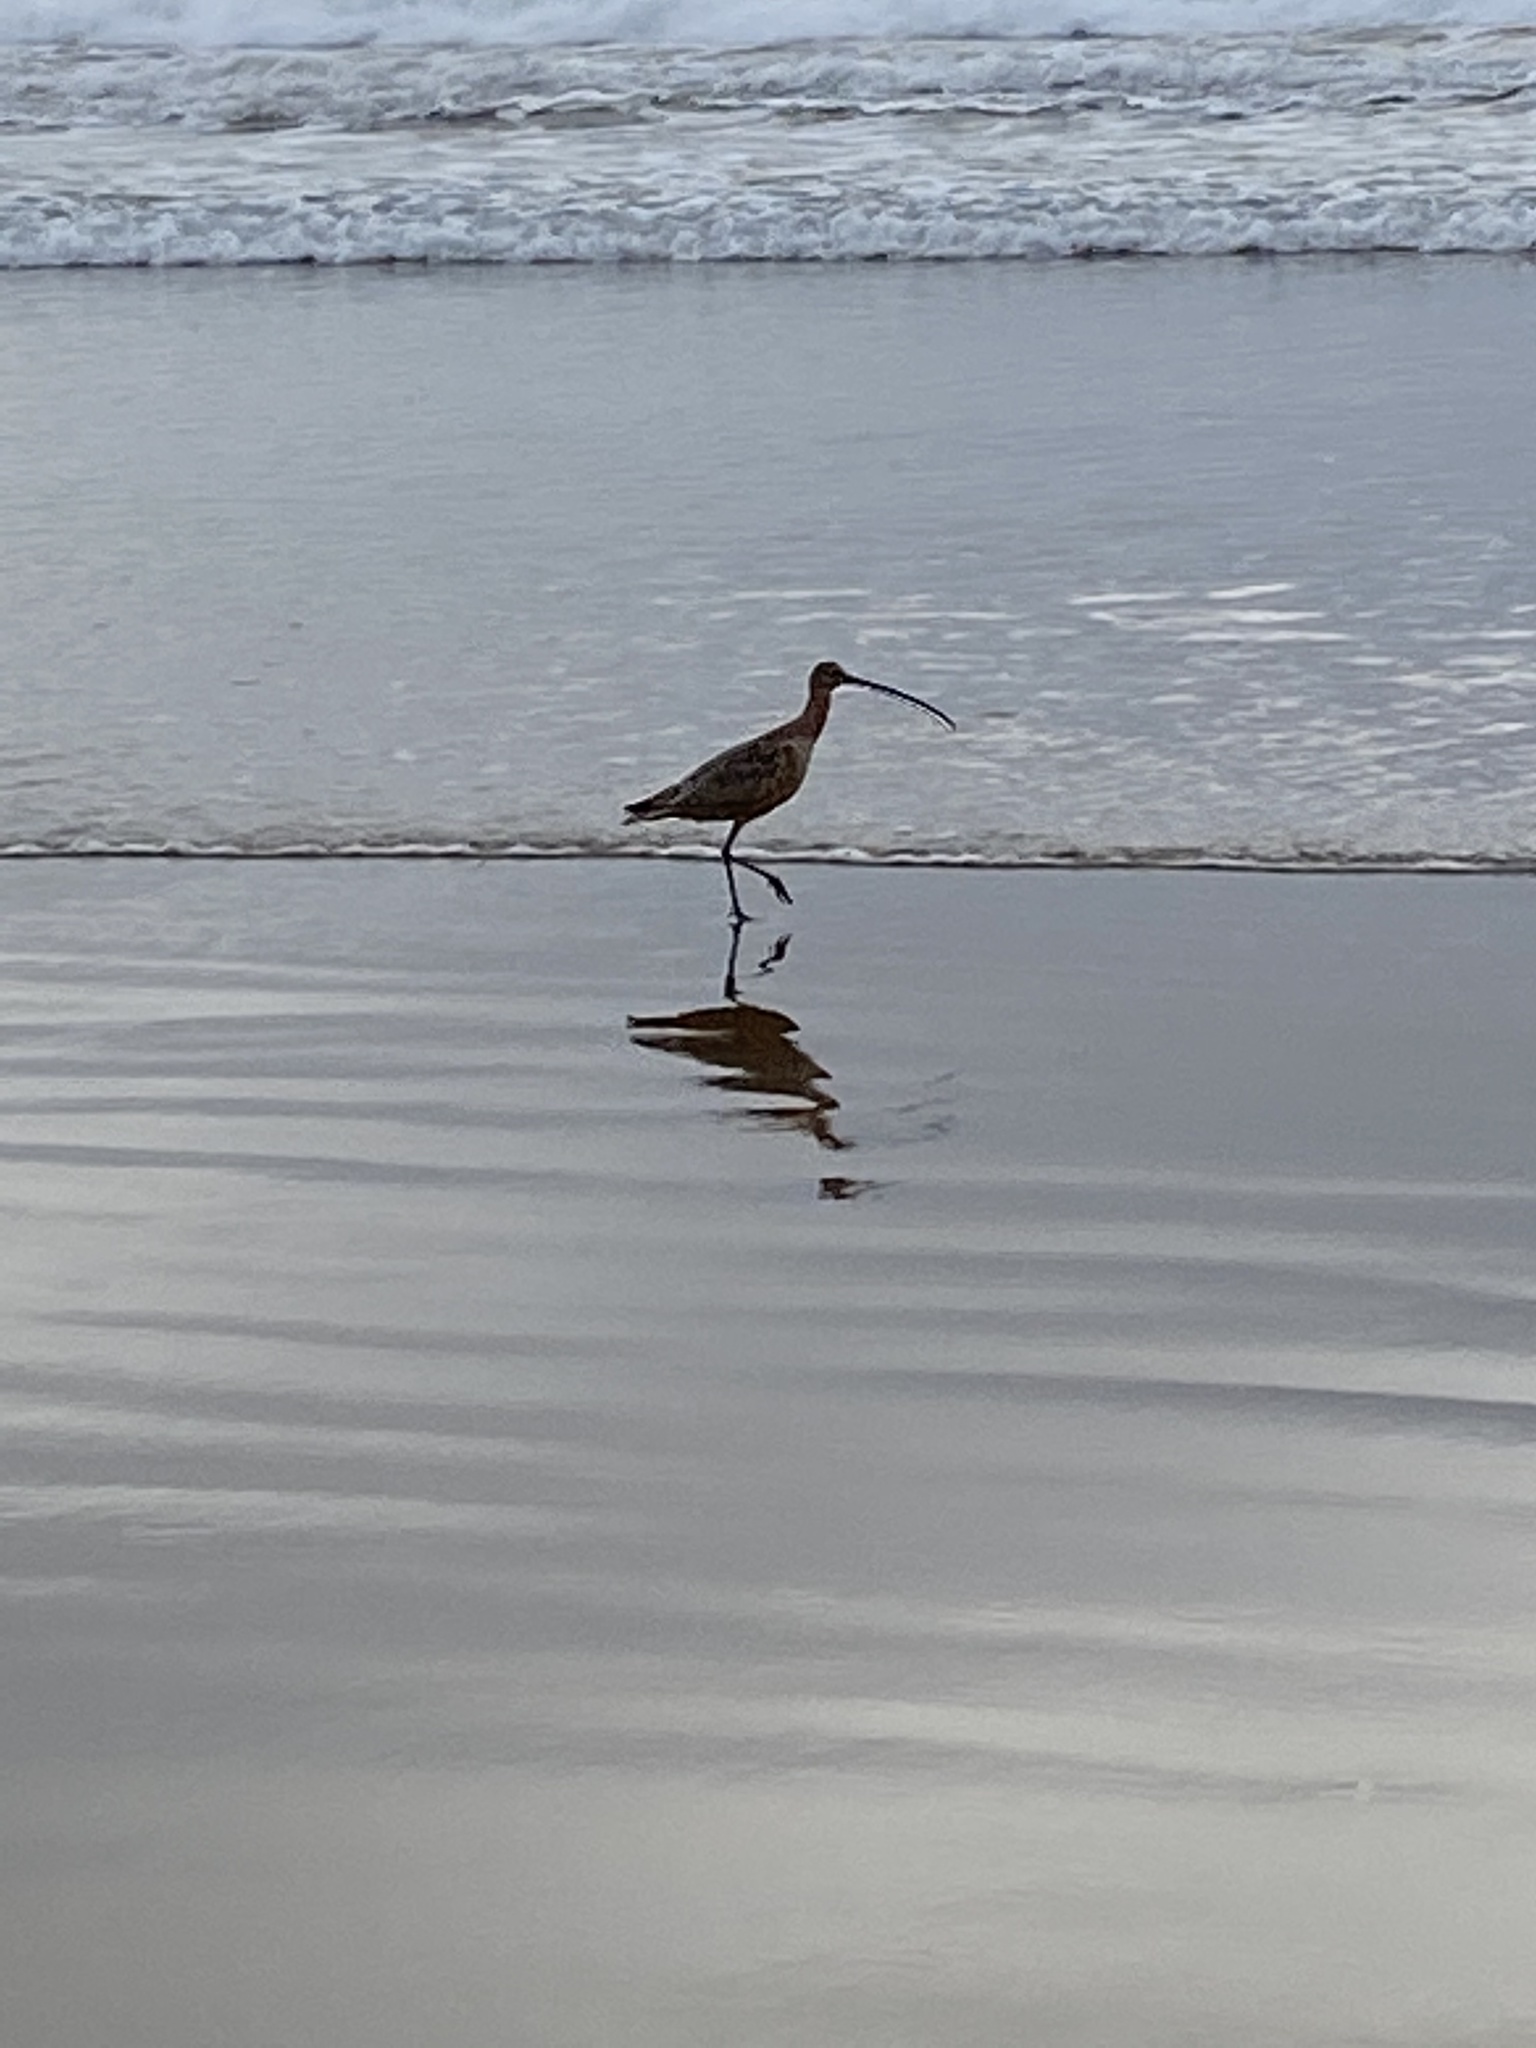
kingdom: Animalia
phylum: Chordata
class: Aves
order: Charadriiformes
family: Scolopacidae
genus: Numenius
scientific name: Numenius americanus
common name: Long-billed curlew
